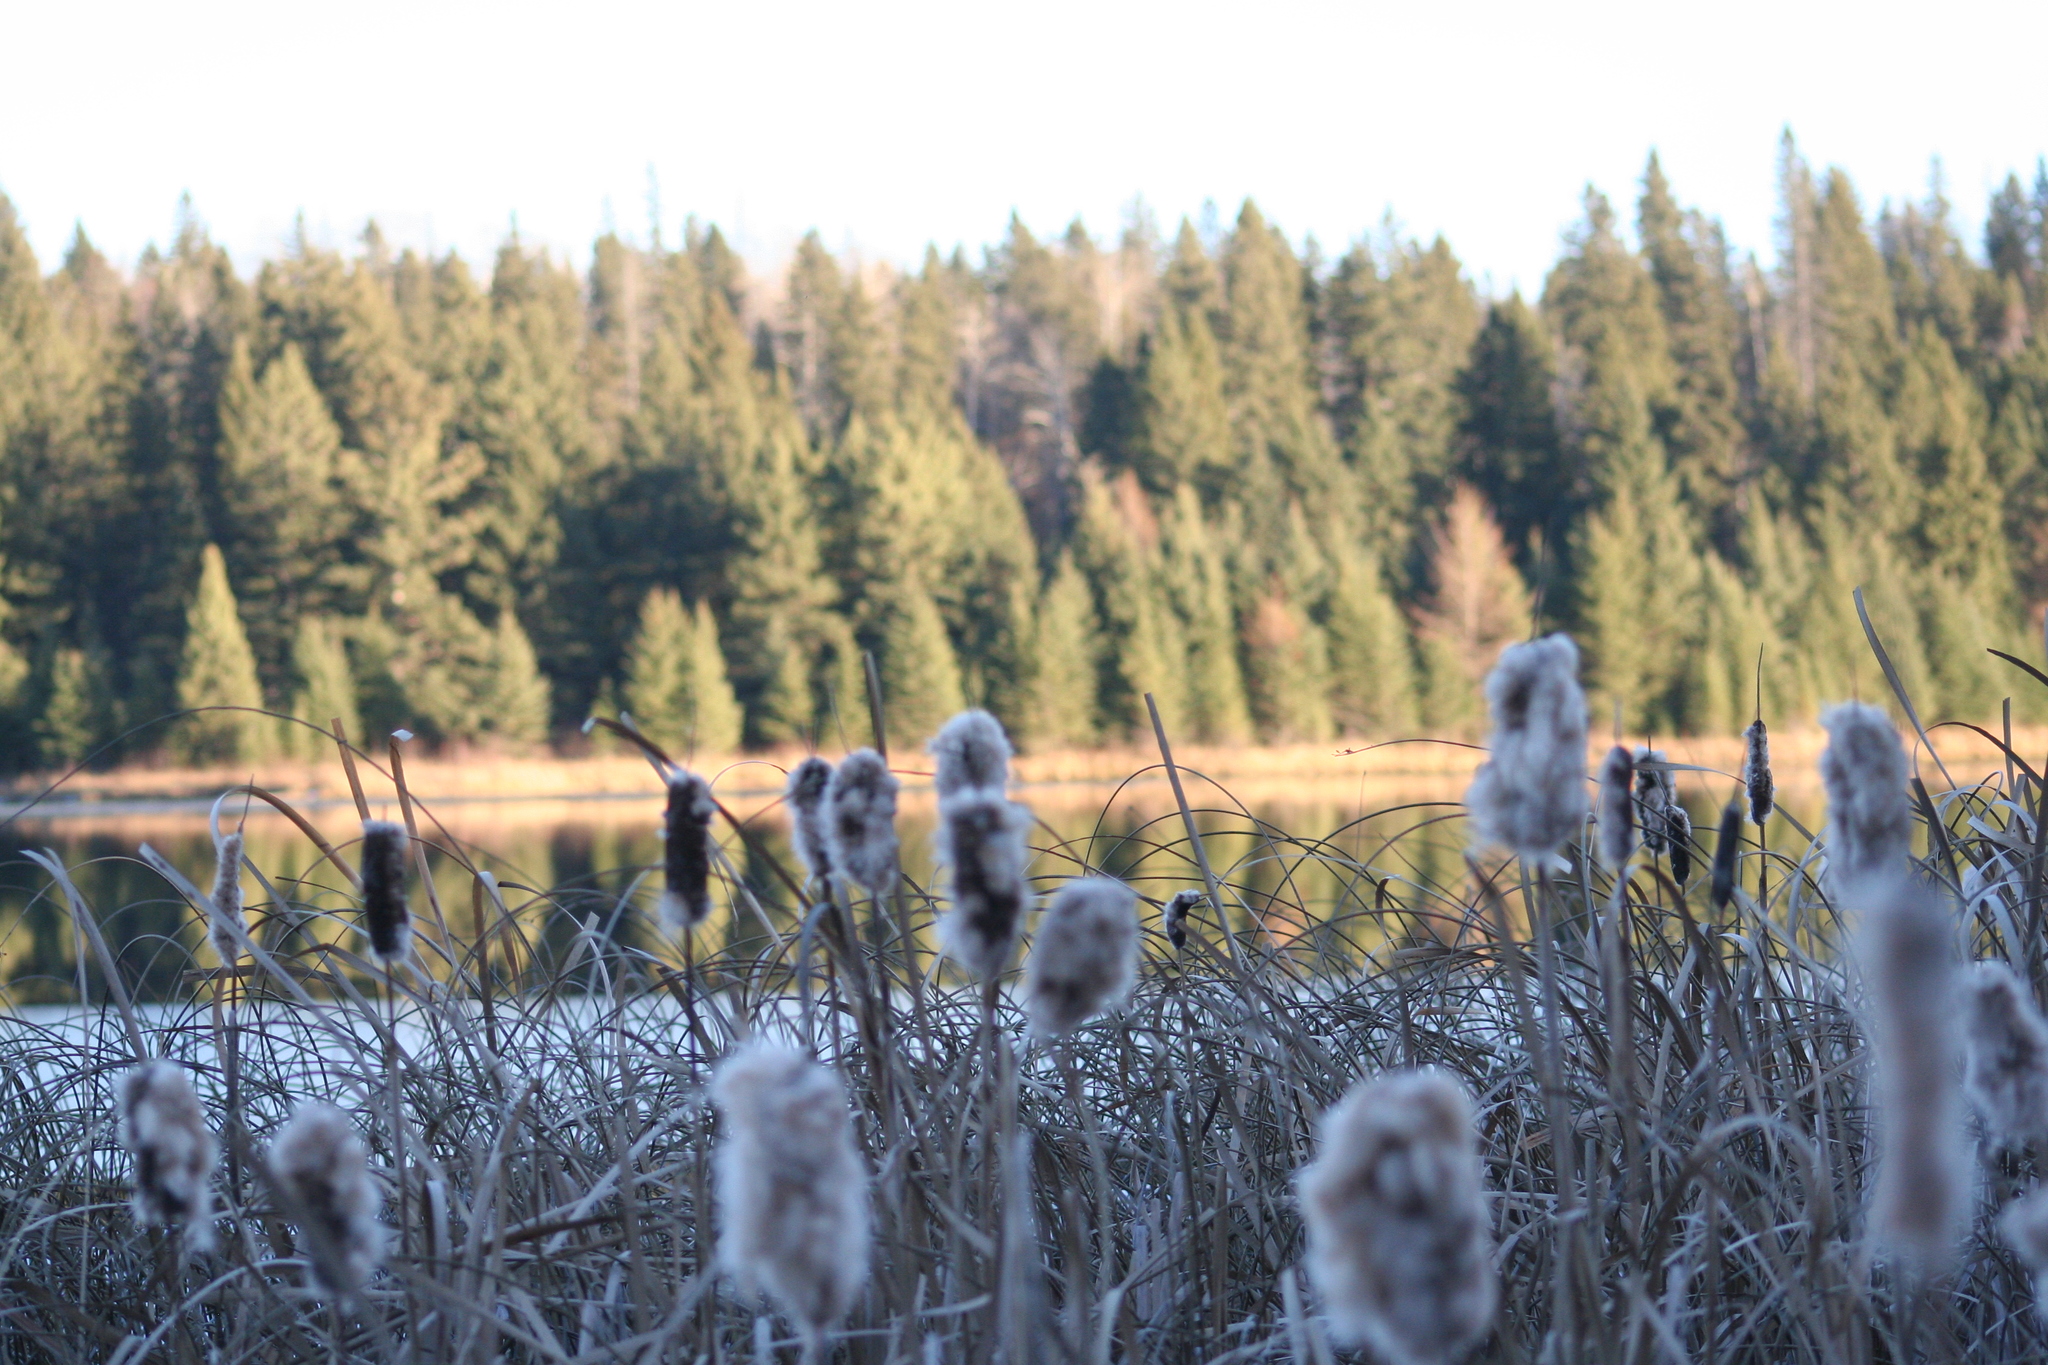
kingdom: Plantae
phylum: Tracheophyta
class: Liliopsida
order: Poales
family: Typhaceae
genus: Typha
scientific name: Typha latifolia
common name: Broadleaf cattail
